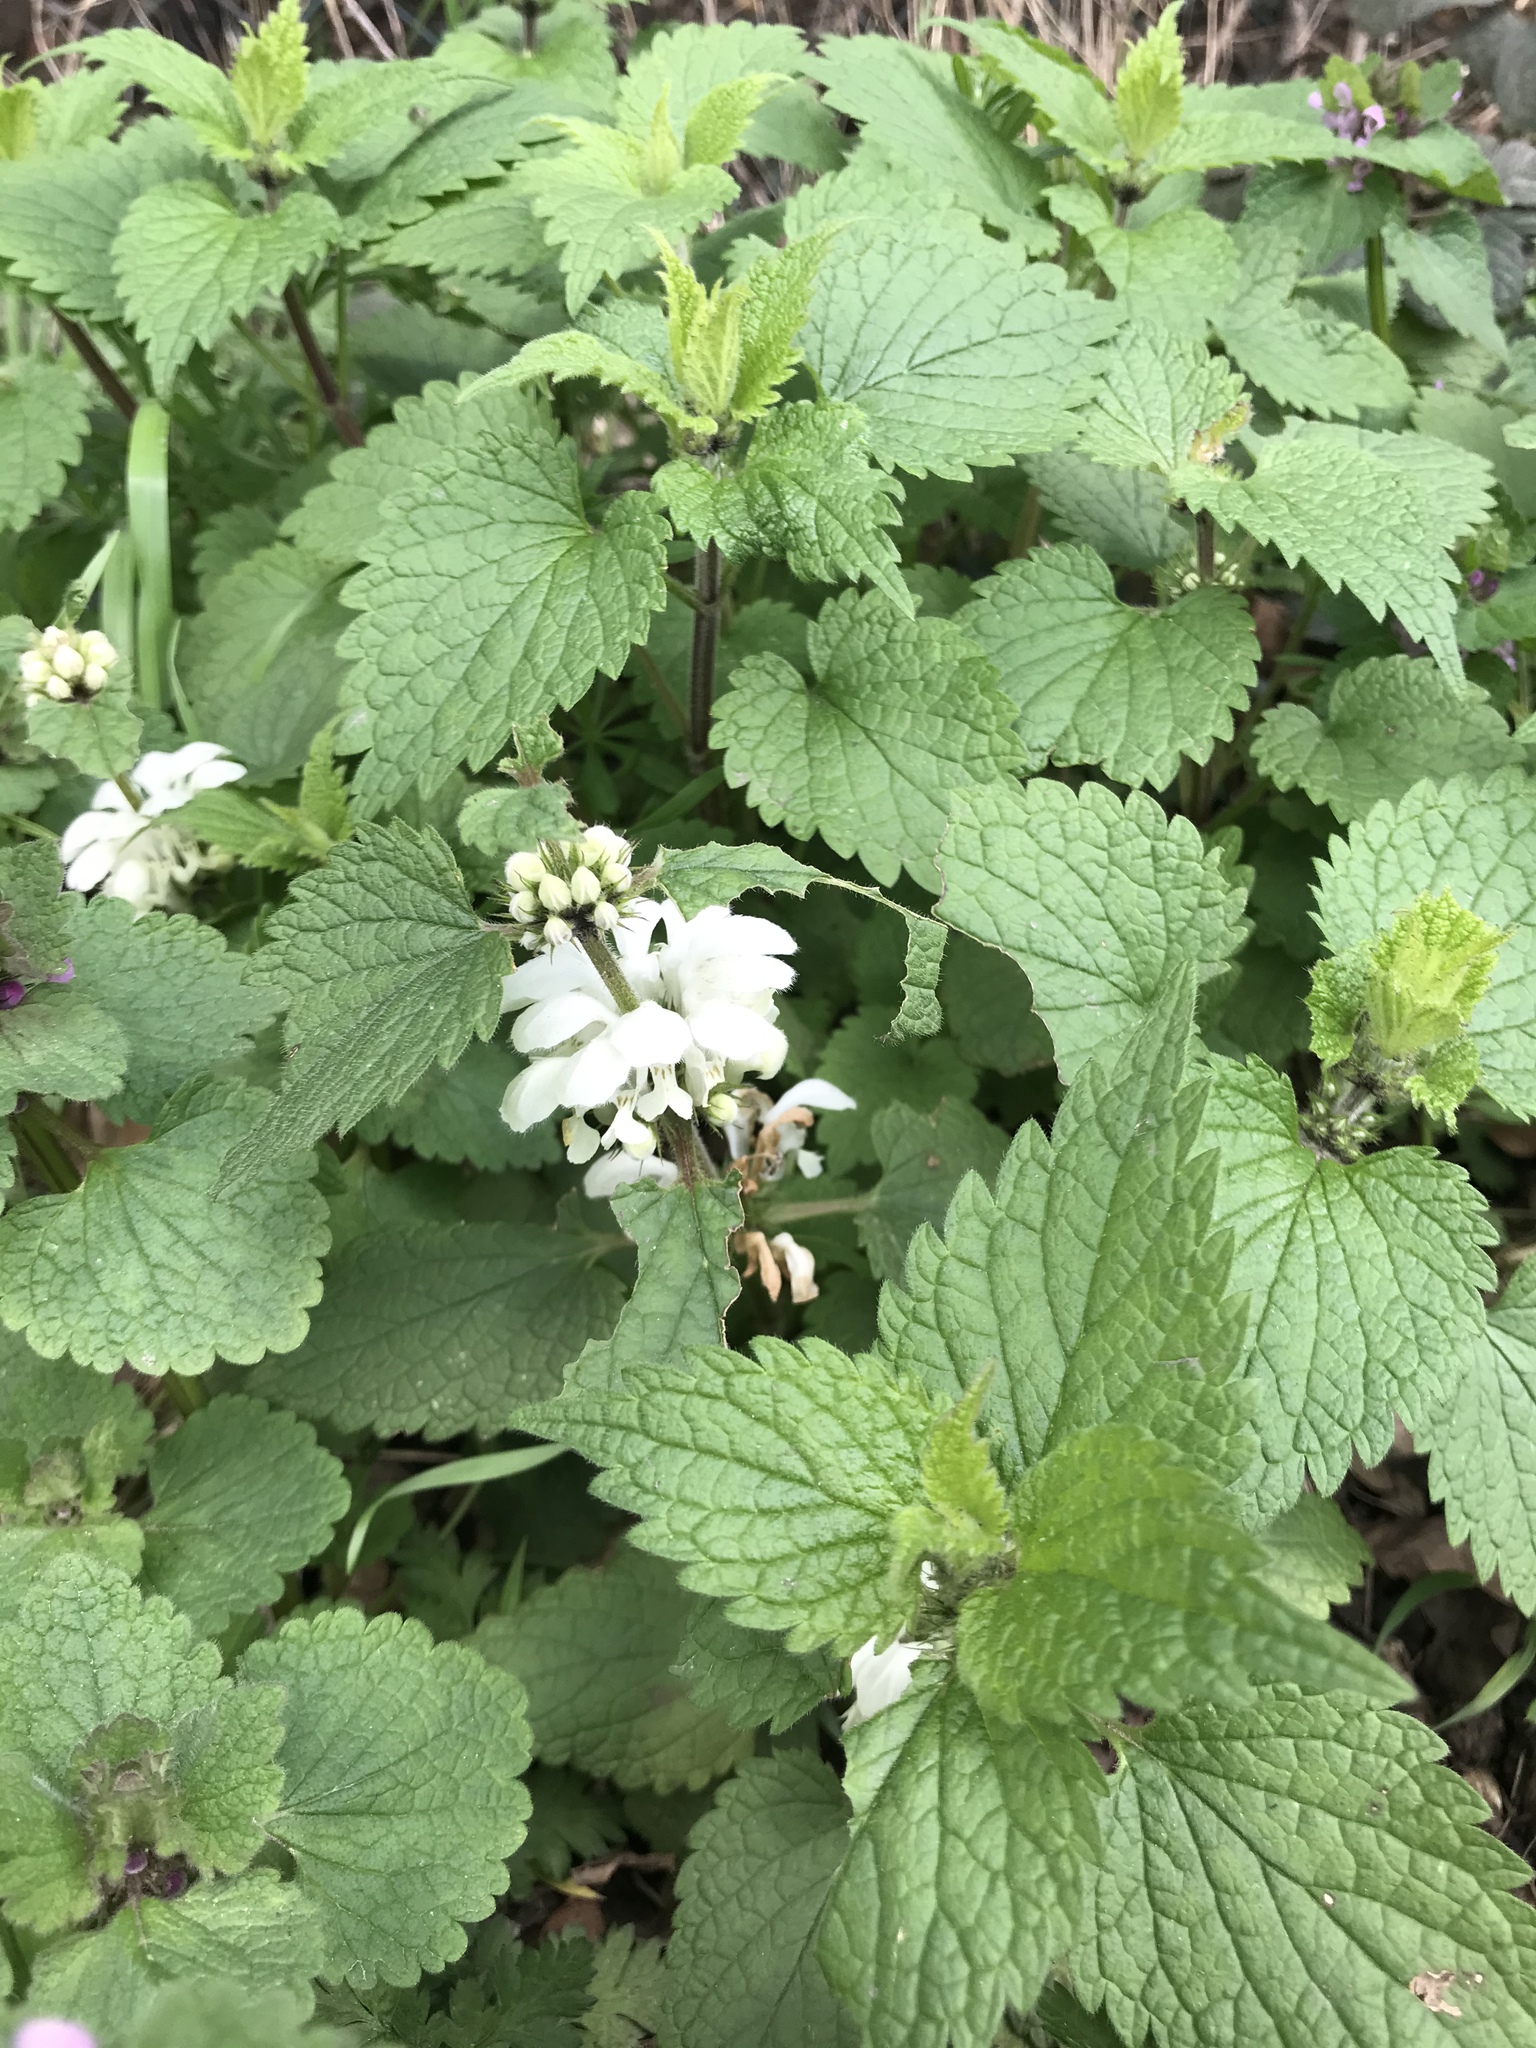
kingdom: Plantae
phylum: Tracheophyta
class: Magnoliopsida
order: Lamiales
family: Lamiaceae
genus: Lamium
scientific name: Lamium album
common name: White dead-nettle
